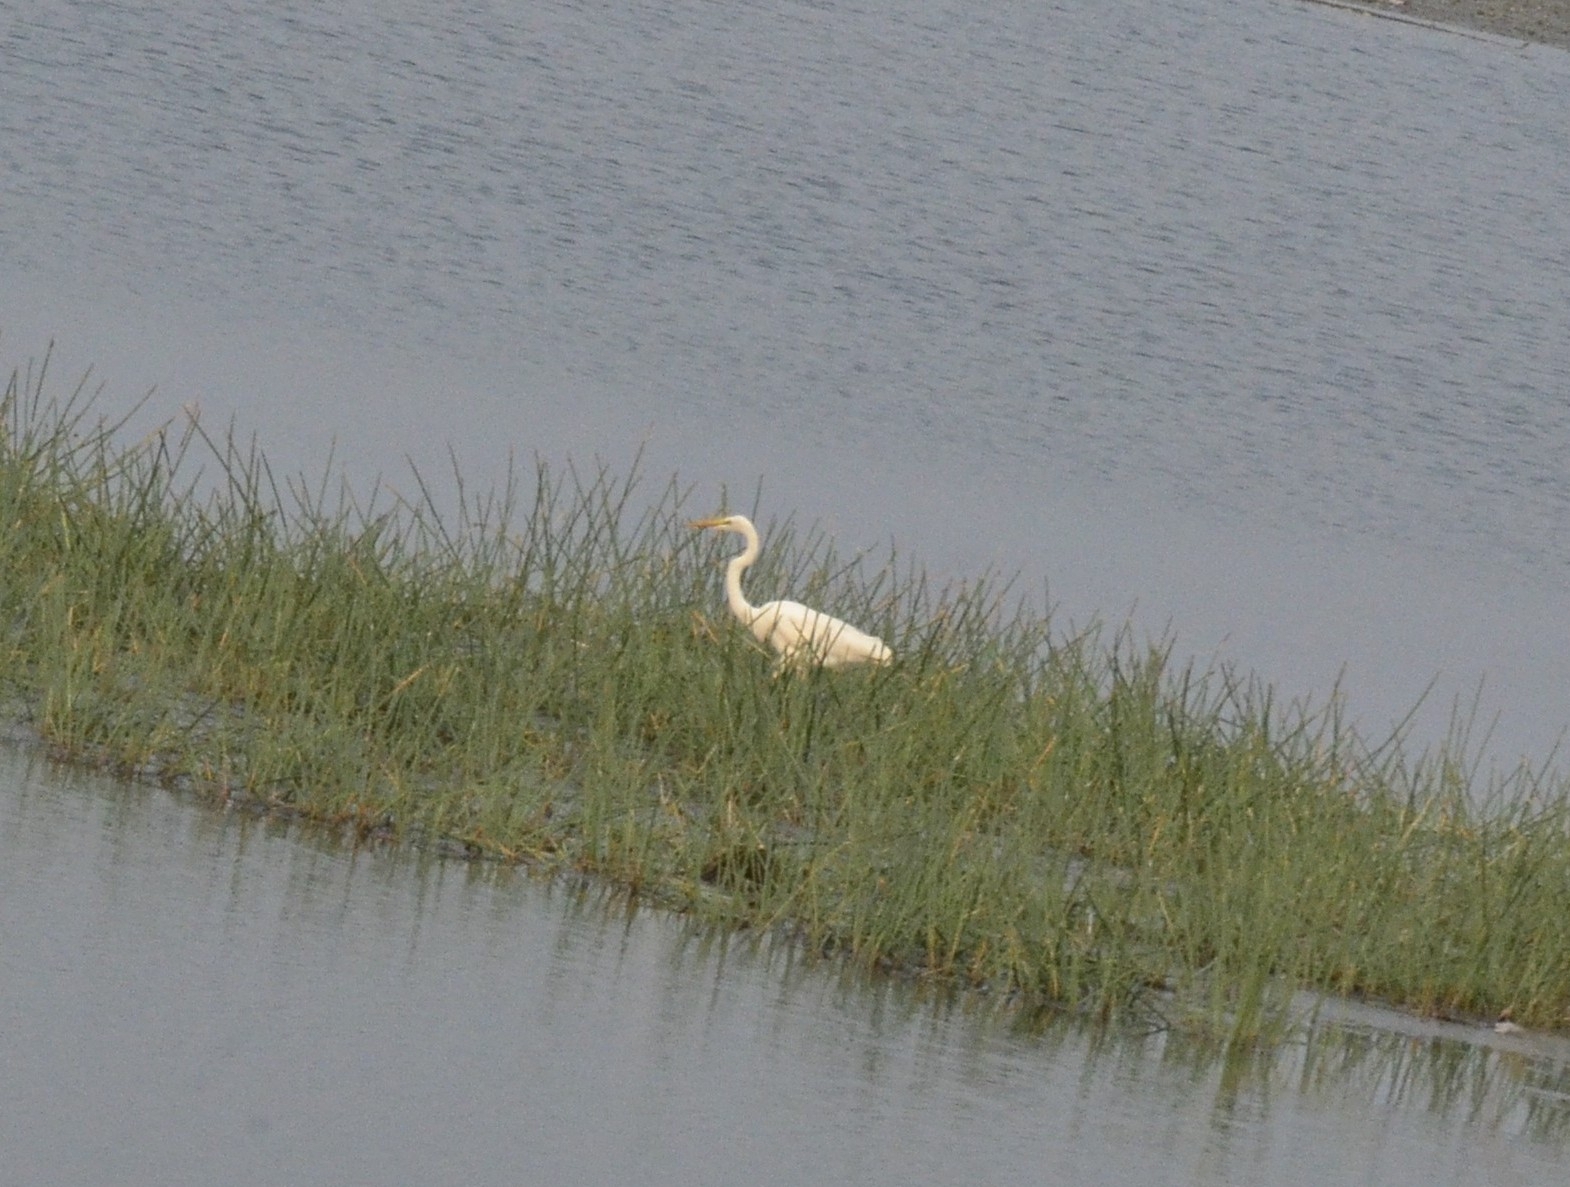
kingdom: Animalia
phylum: Chordata
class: Aves
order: Pelecaniformes
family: Ardeidae
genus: Ardea
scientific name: Ardea alba
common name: Great egret
